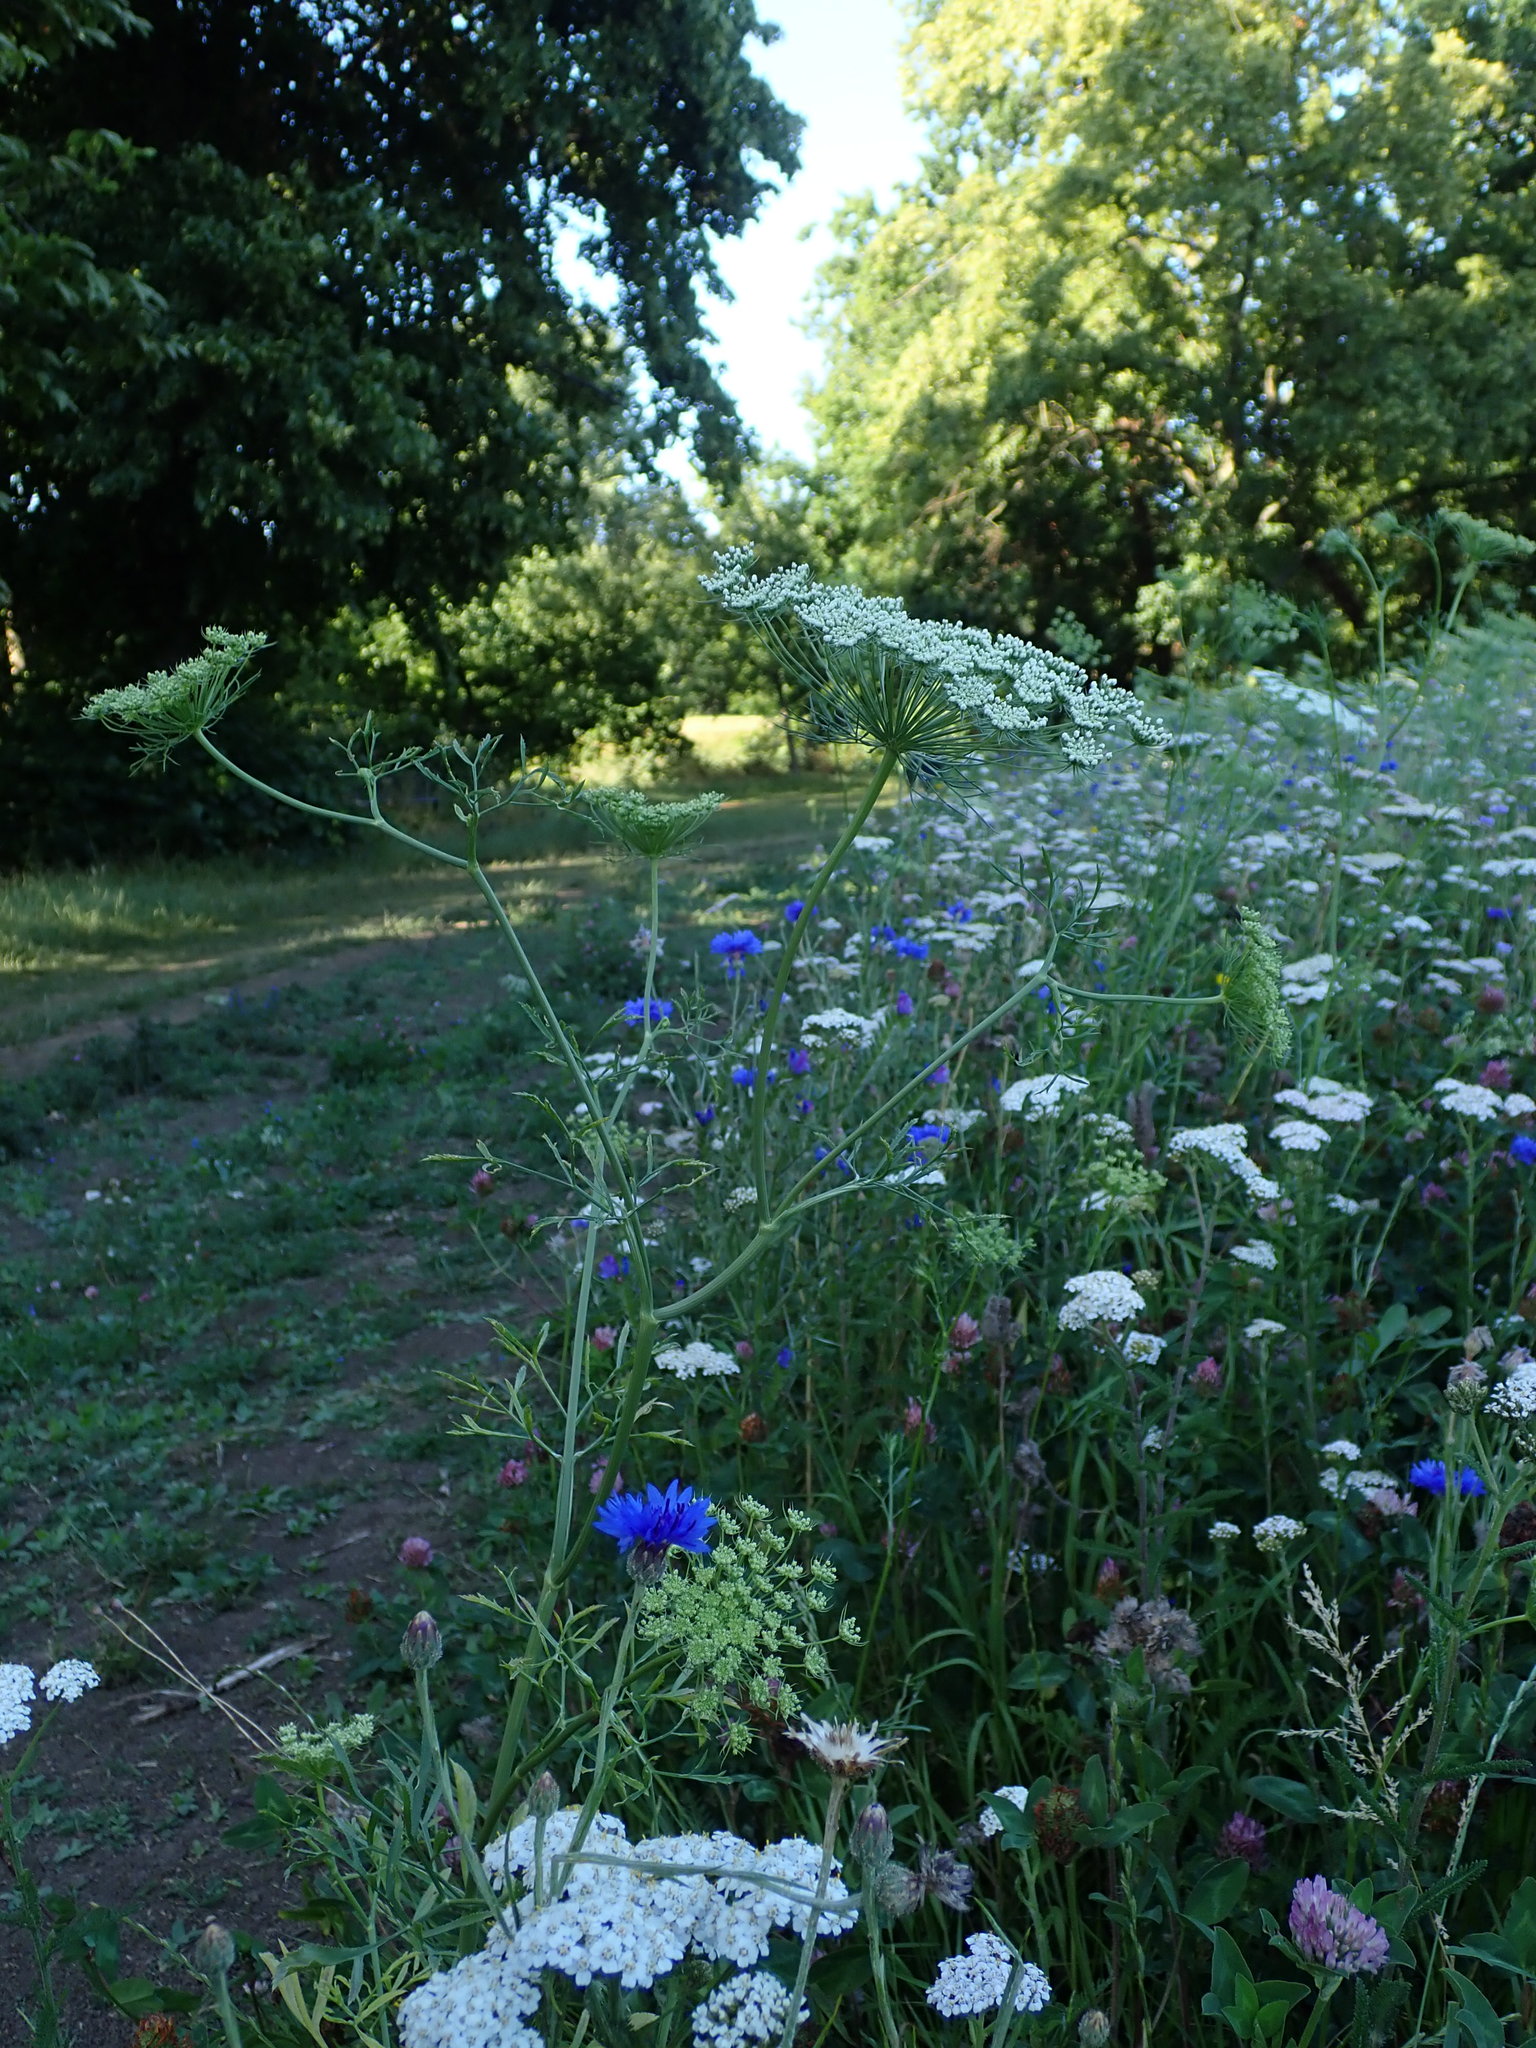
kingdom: Plantae
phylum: Tracheophyta
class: Magnoliopsida
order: Apiales
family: Apiaceae
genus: Ammi
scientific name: Ammi majus
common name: Bullwort
